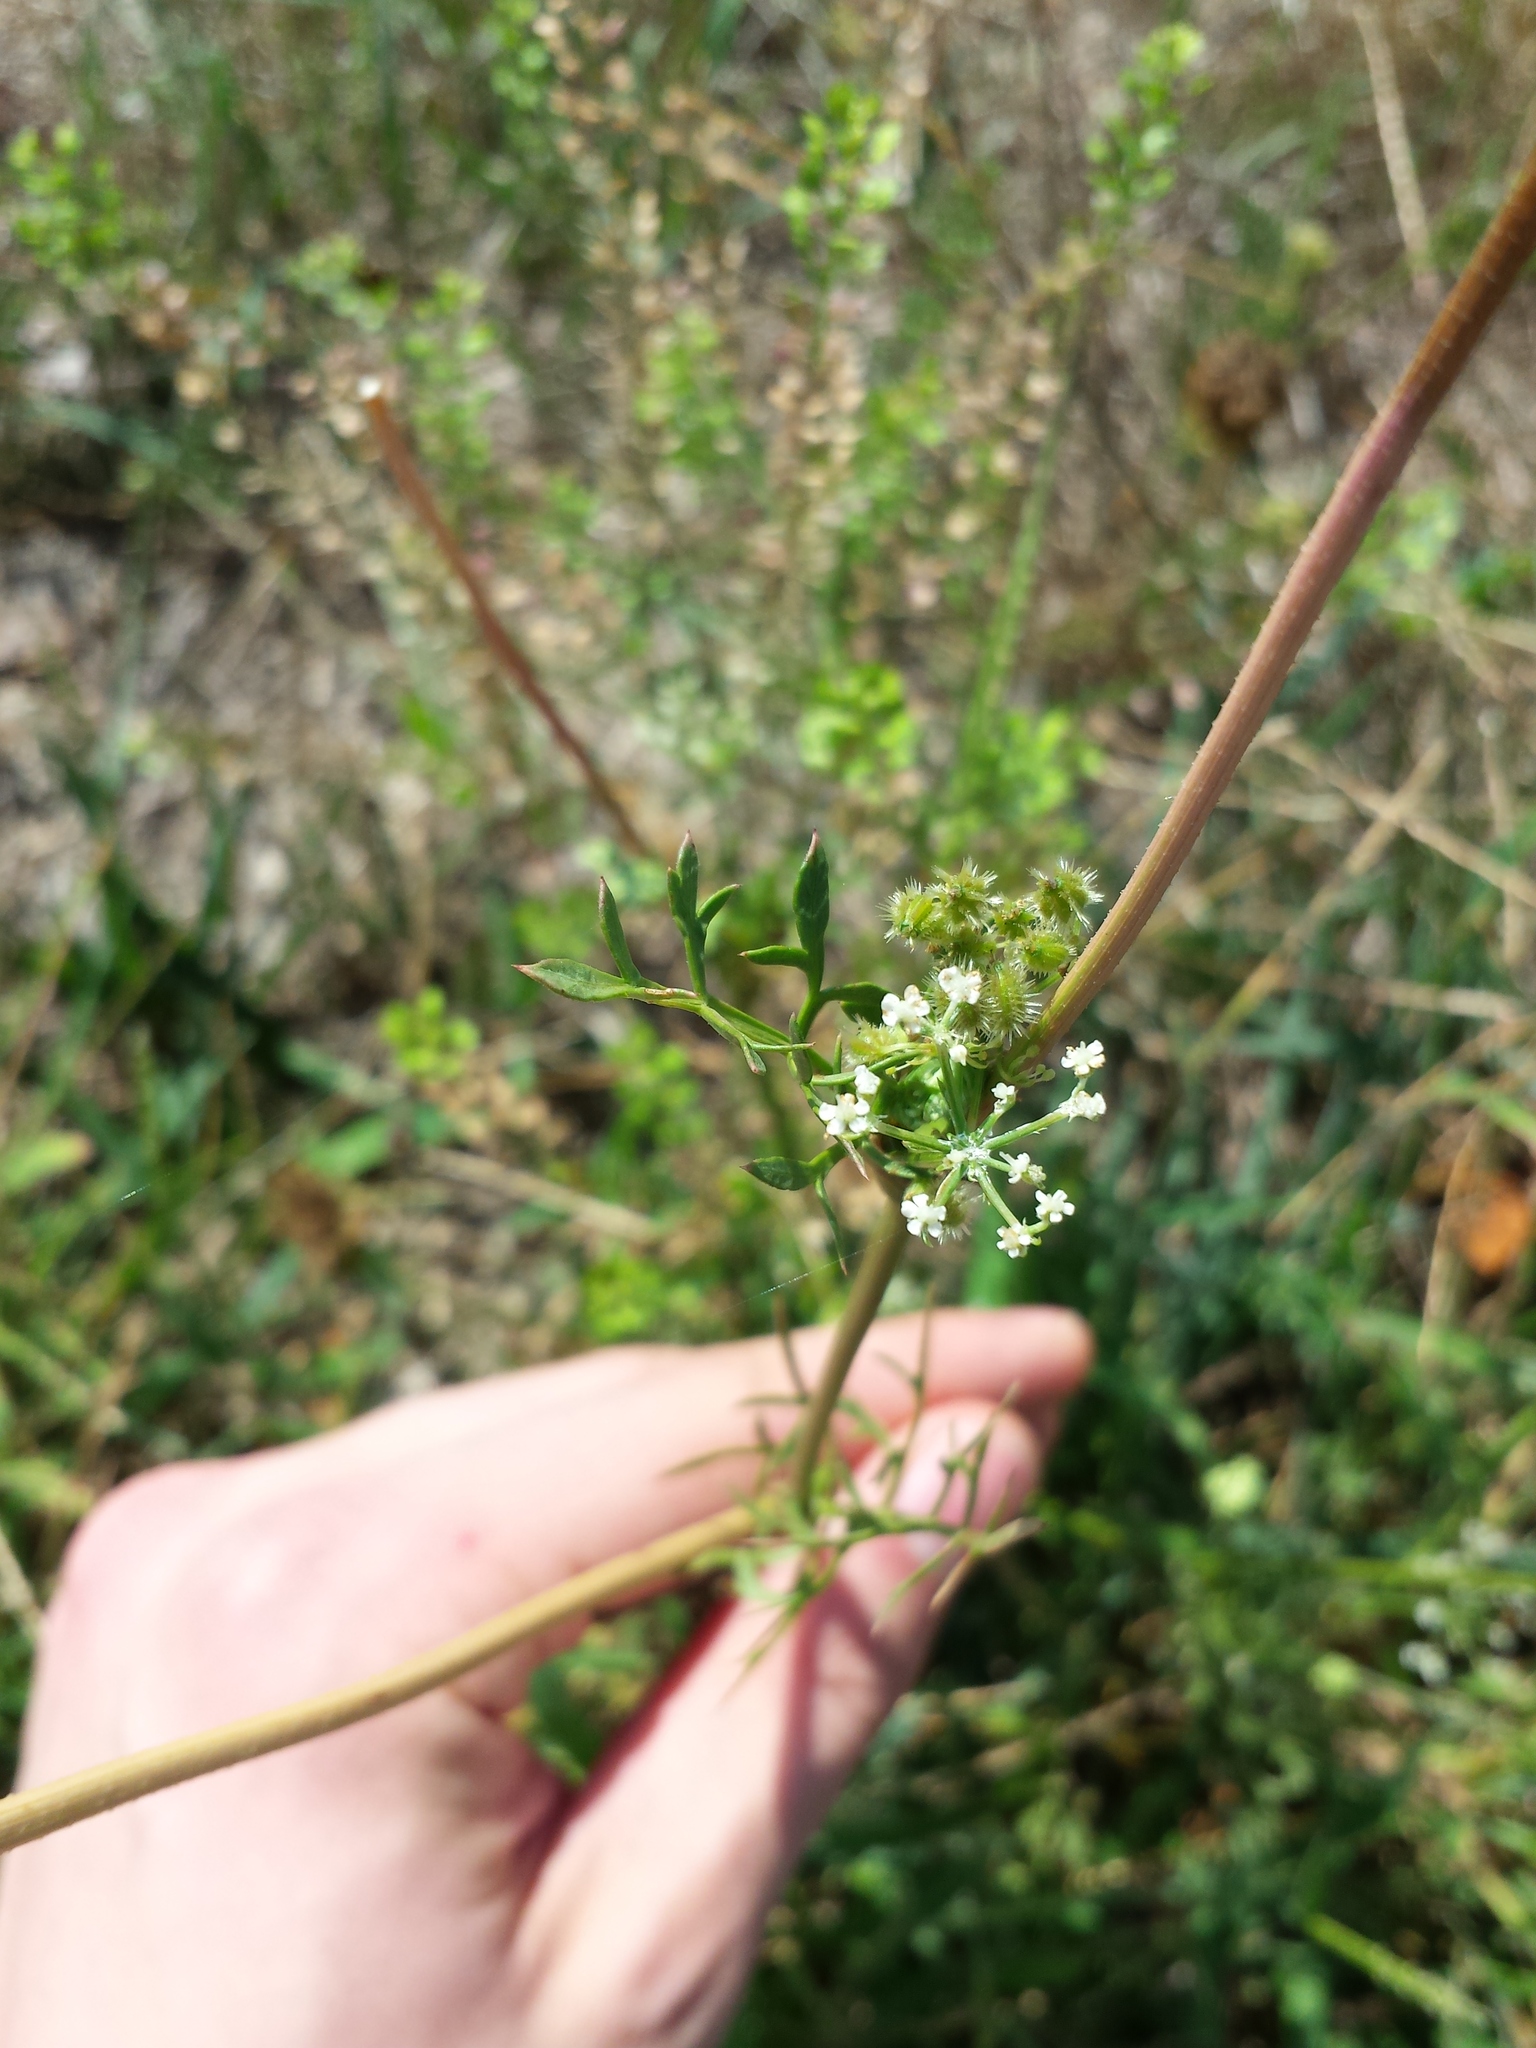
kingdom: Plantae
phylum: Tracheophyta
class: Magnoliopsida
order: Apiales
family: Apiaceae
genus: Daucus
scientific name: Daucus carota
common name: Wild carrot
